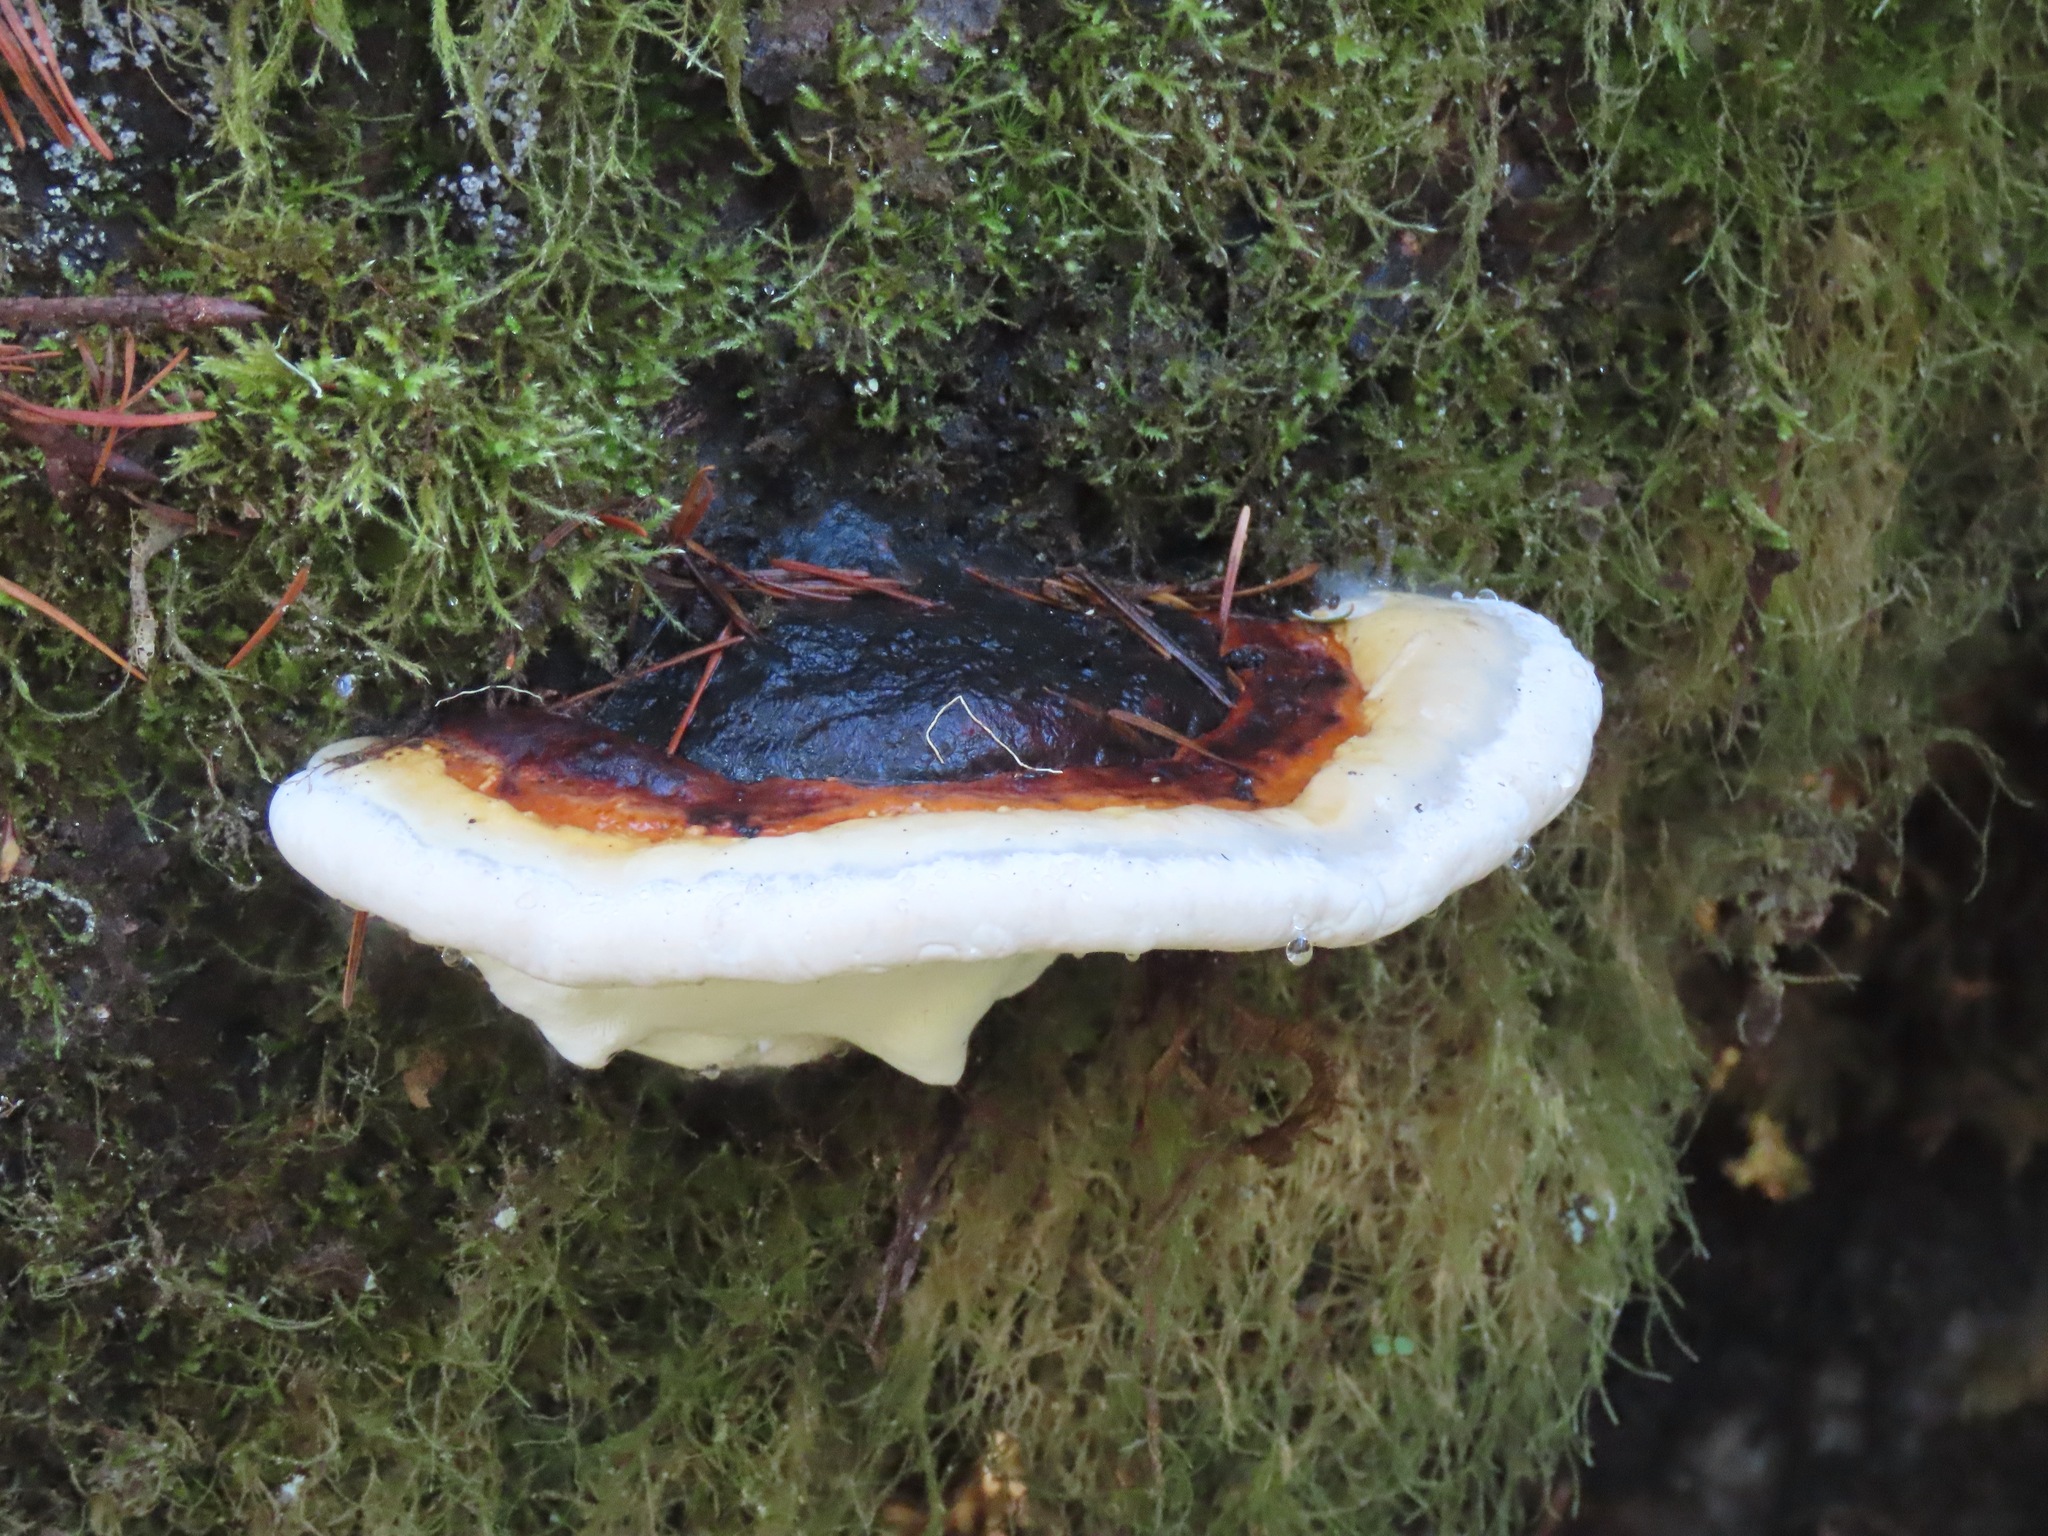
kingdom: Fungi
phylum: Basidiomycota
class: Agaricomycetes
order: Polyporales
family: Fomitopsidaceae
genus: Fomitopsis
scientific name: Fomitopsis mounceae
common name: Northern red belt
